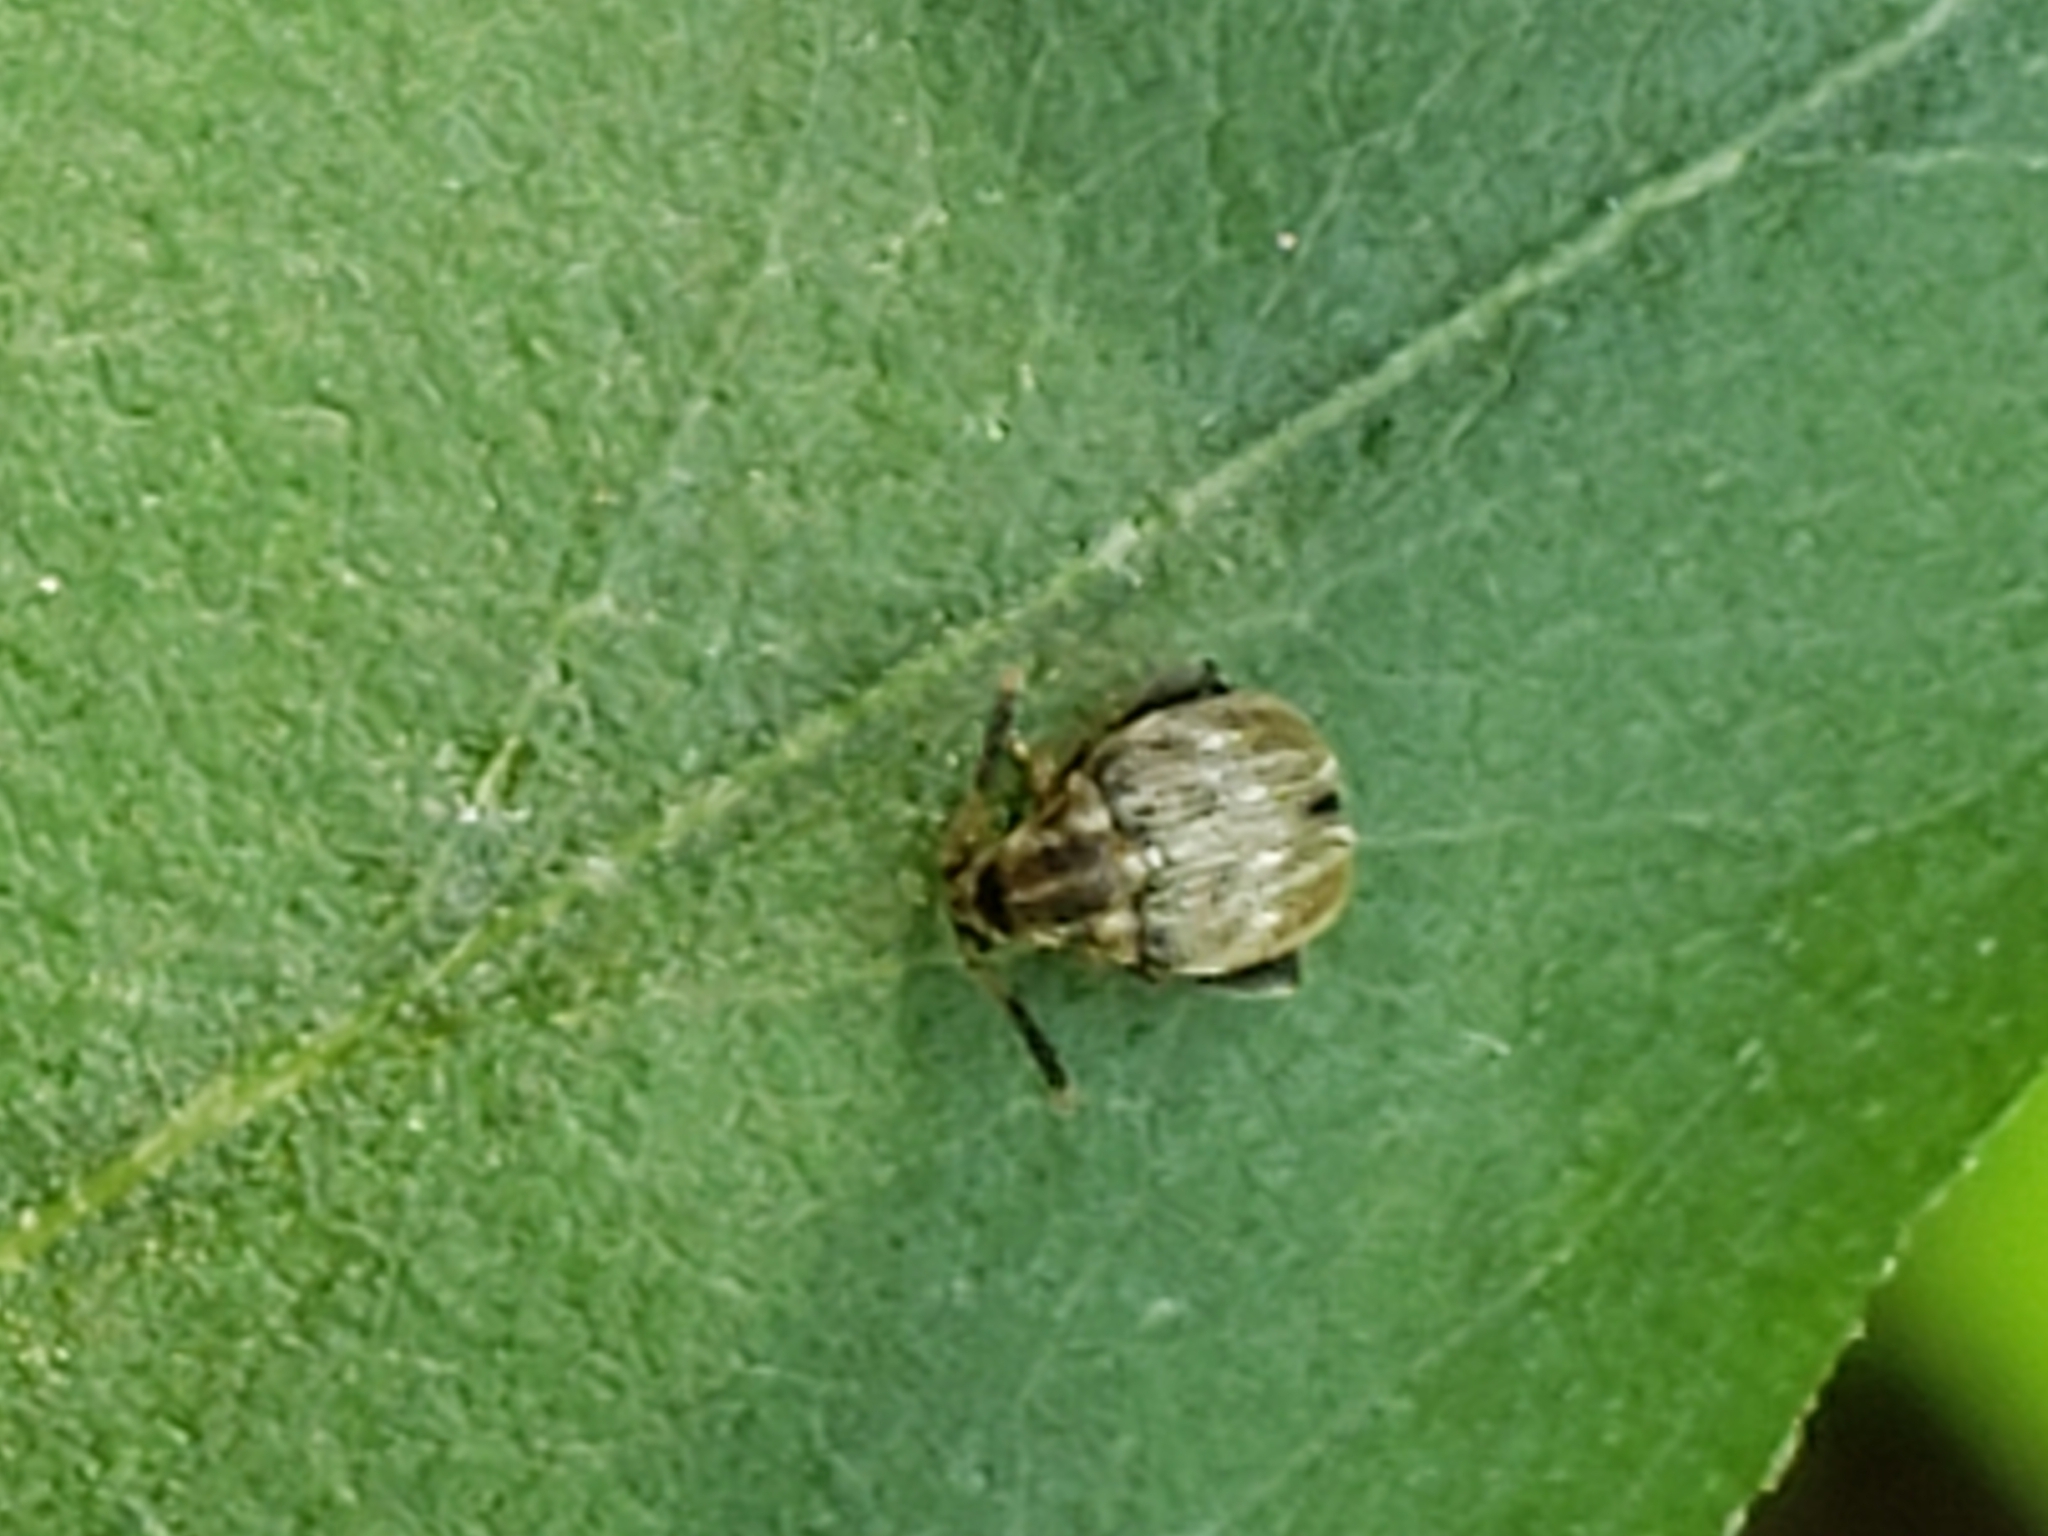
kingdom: Animalia
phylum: Arthropoda
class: Insecta
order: Coleoptera
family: Chrysomelidae
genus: Meibomeus
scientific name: Meibomeus musculus
